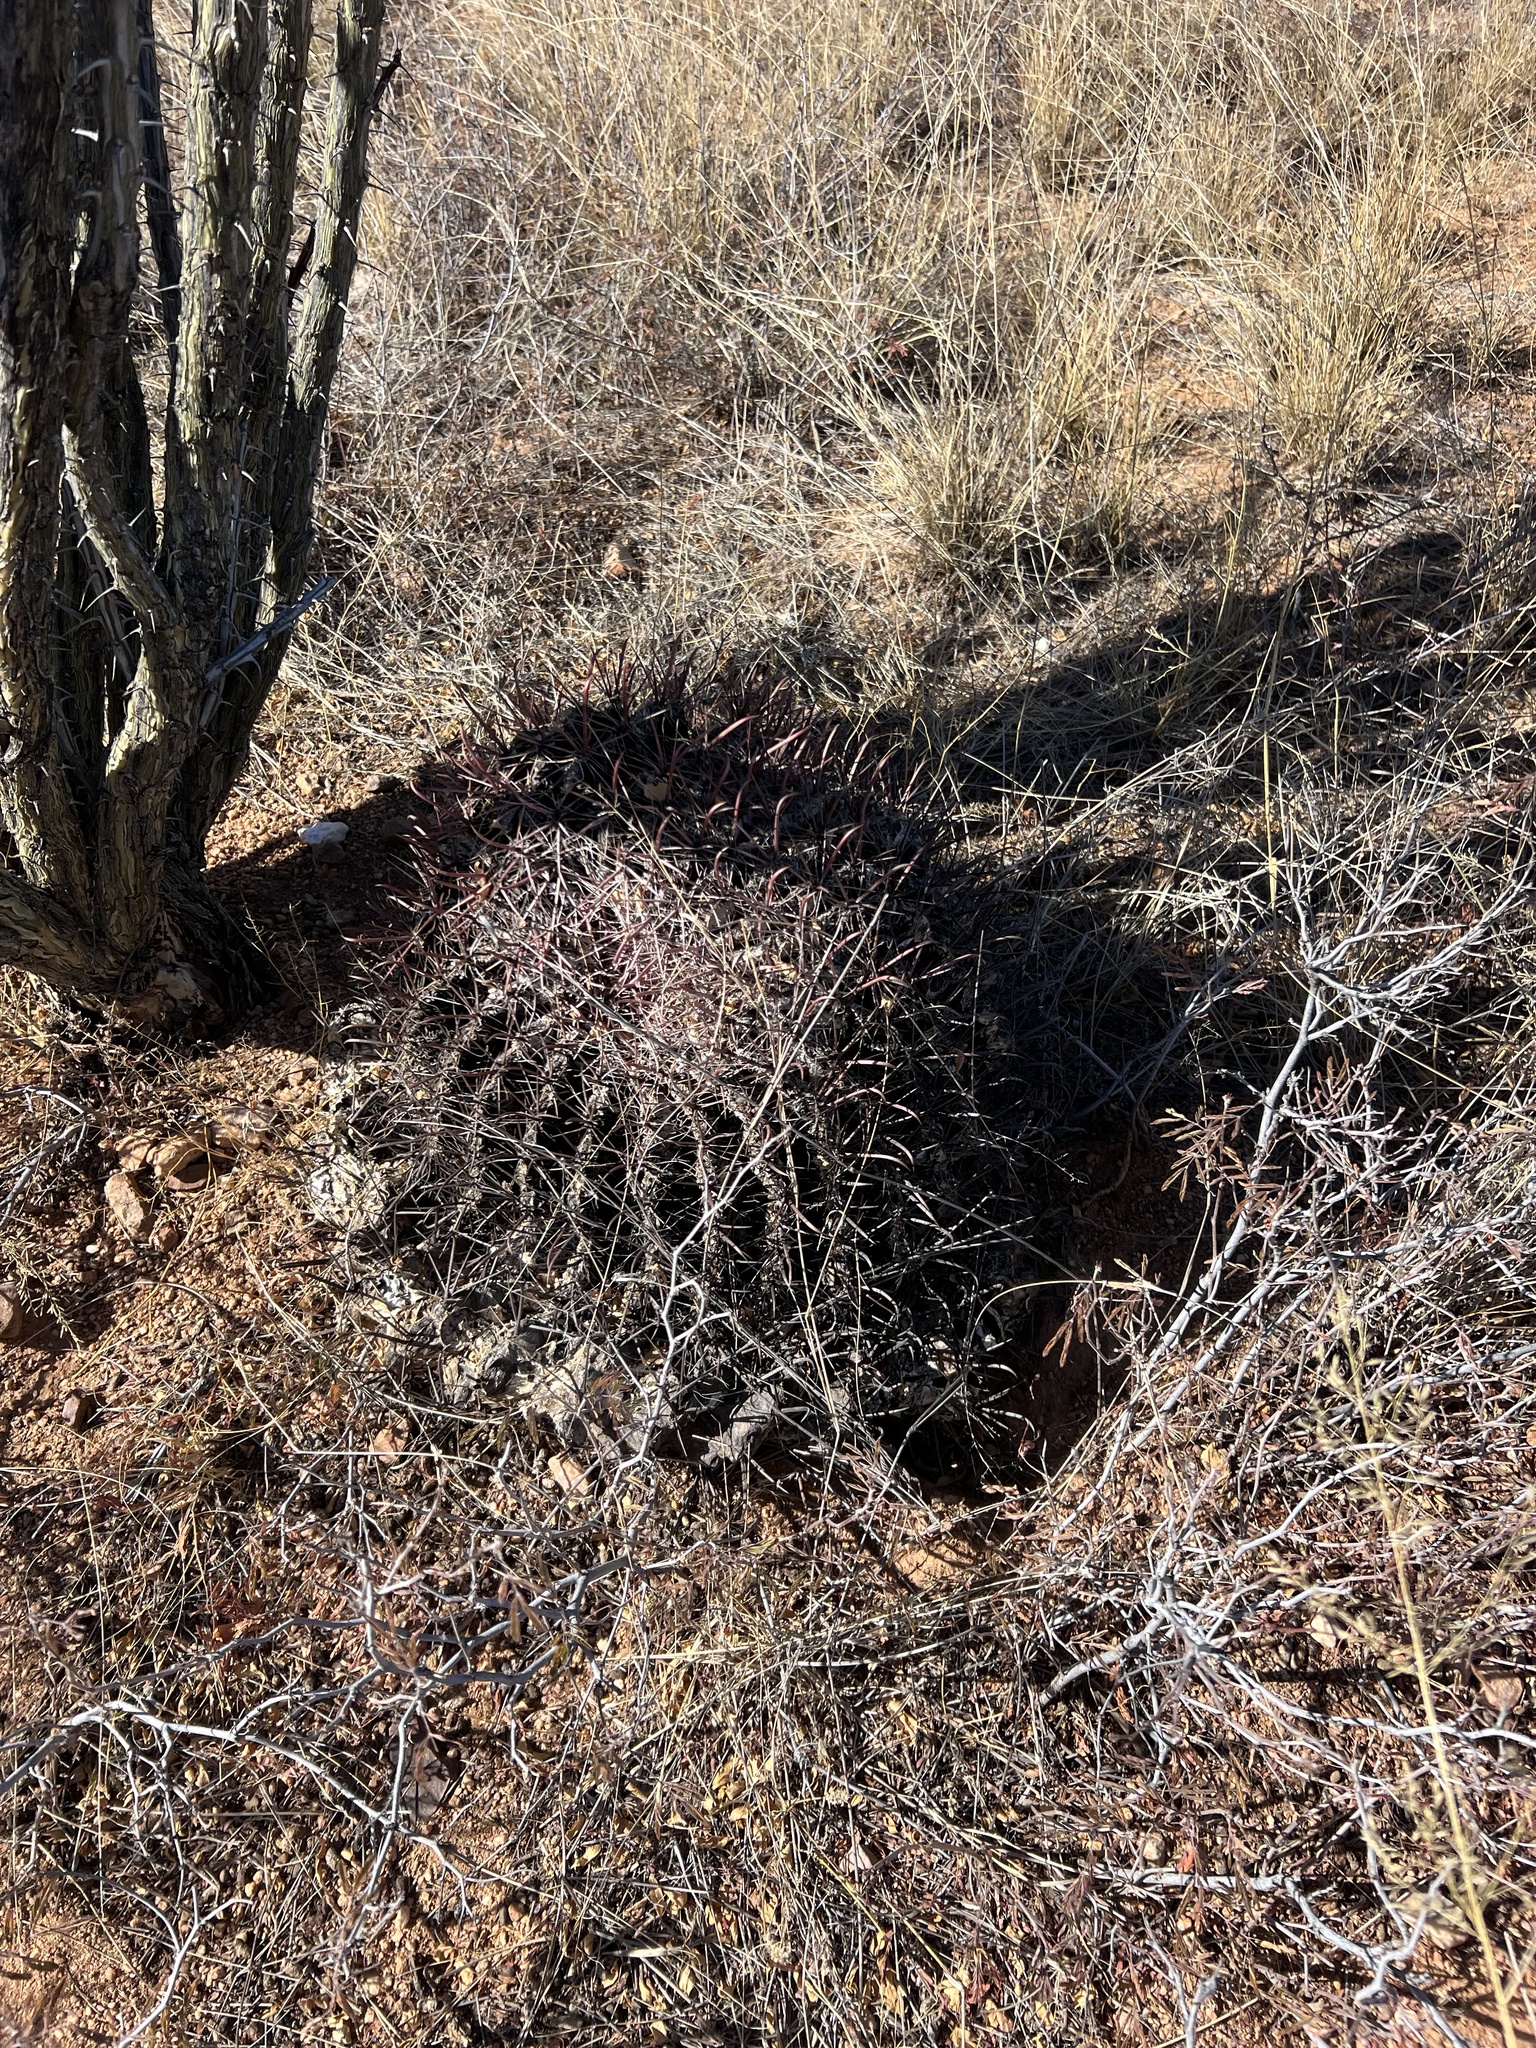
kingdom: Plantae
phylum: Tracheophyta
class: Magnoliopsida
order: Caryophyllales
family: Cactaceae
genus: Ferocactus
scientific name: Ferocactus wislizeni
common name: Candy barrel cactus
